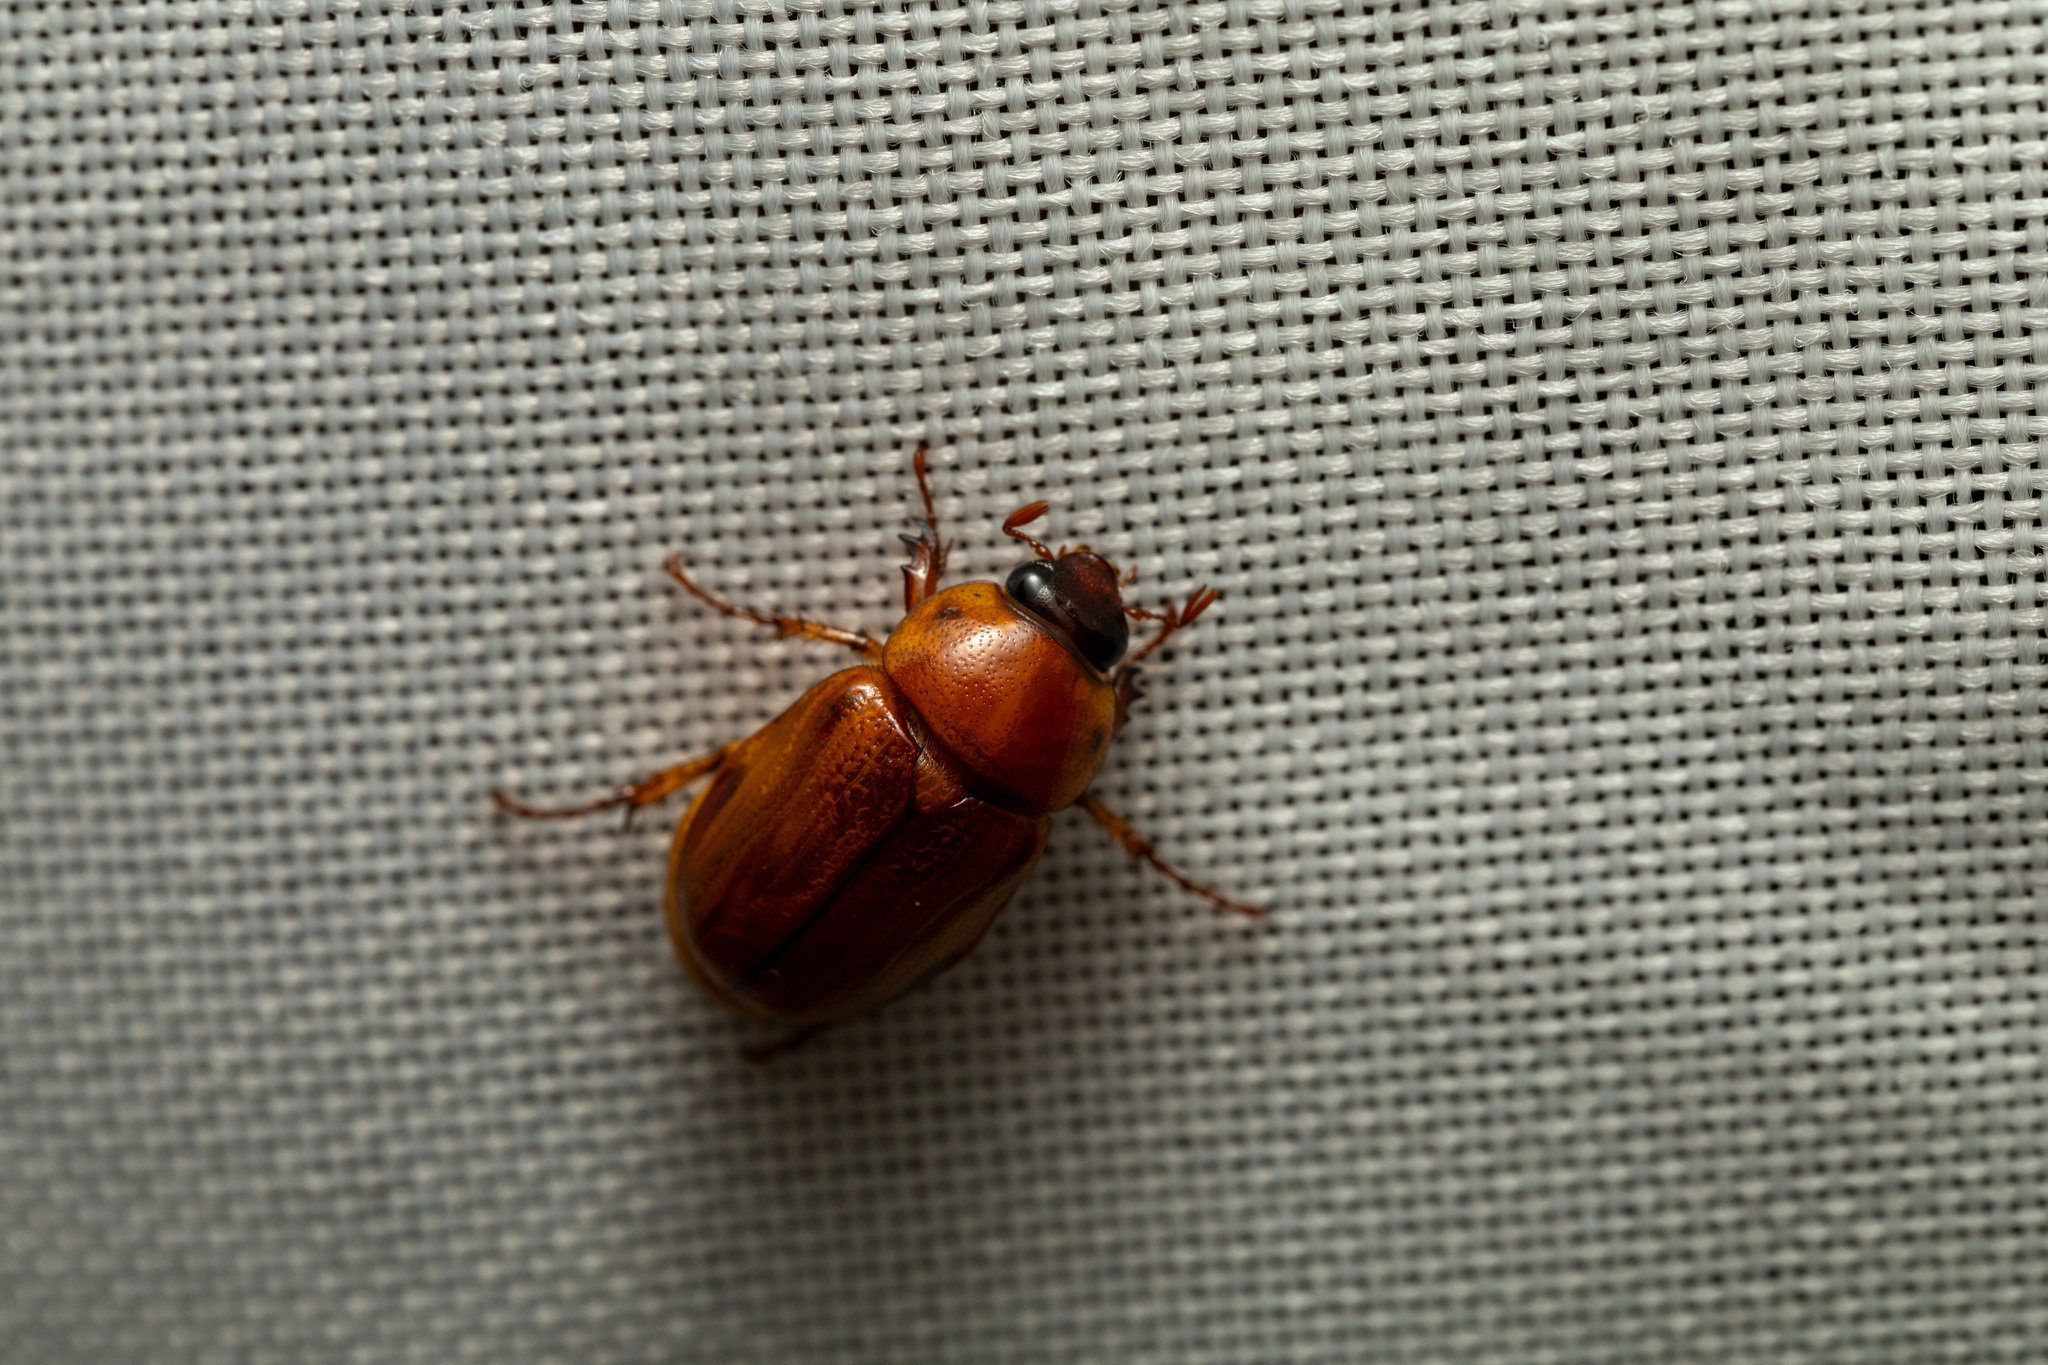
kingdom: Animalia
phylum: Arthropoda
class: Insecta
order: Coleoptera
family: Scarabaeidae
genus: Cyclocephala
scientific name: Cyclocephala lurida
